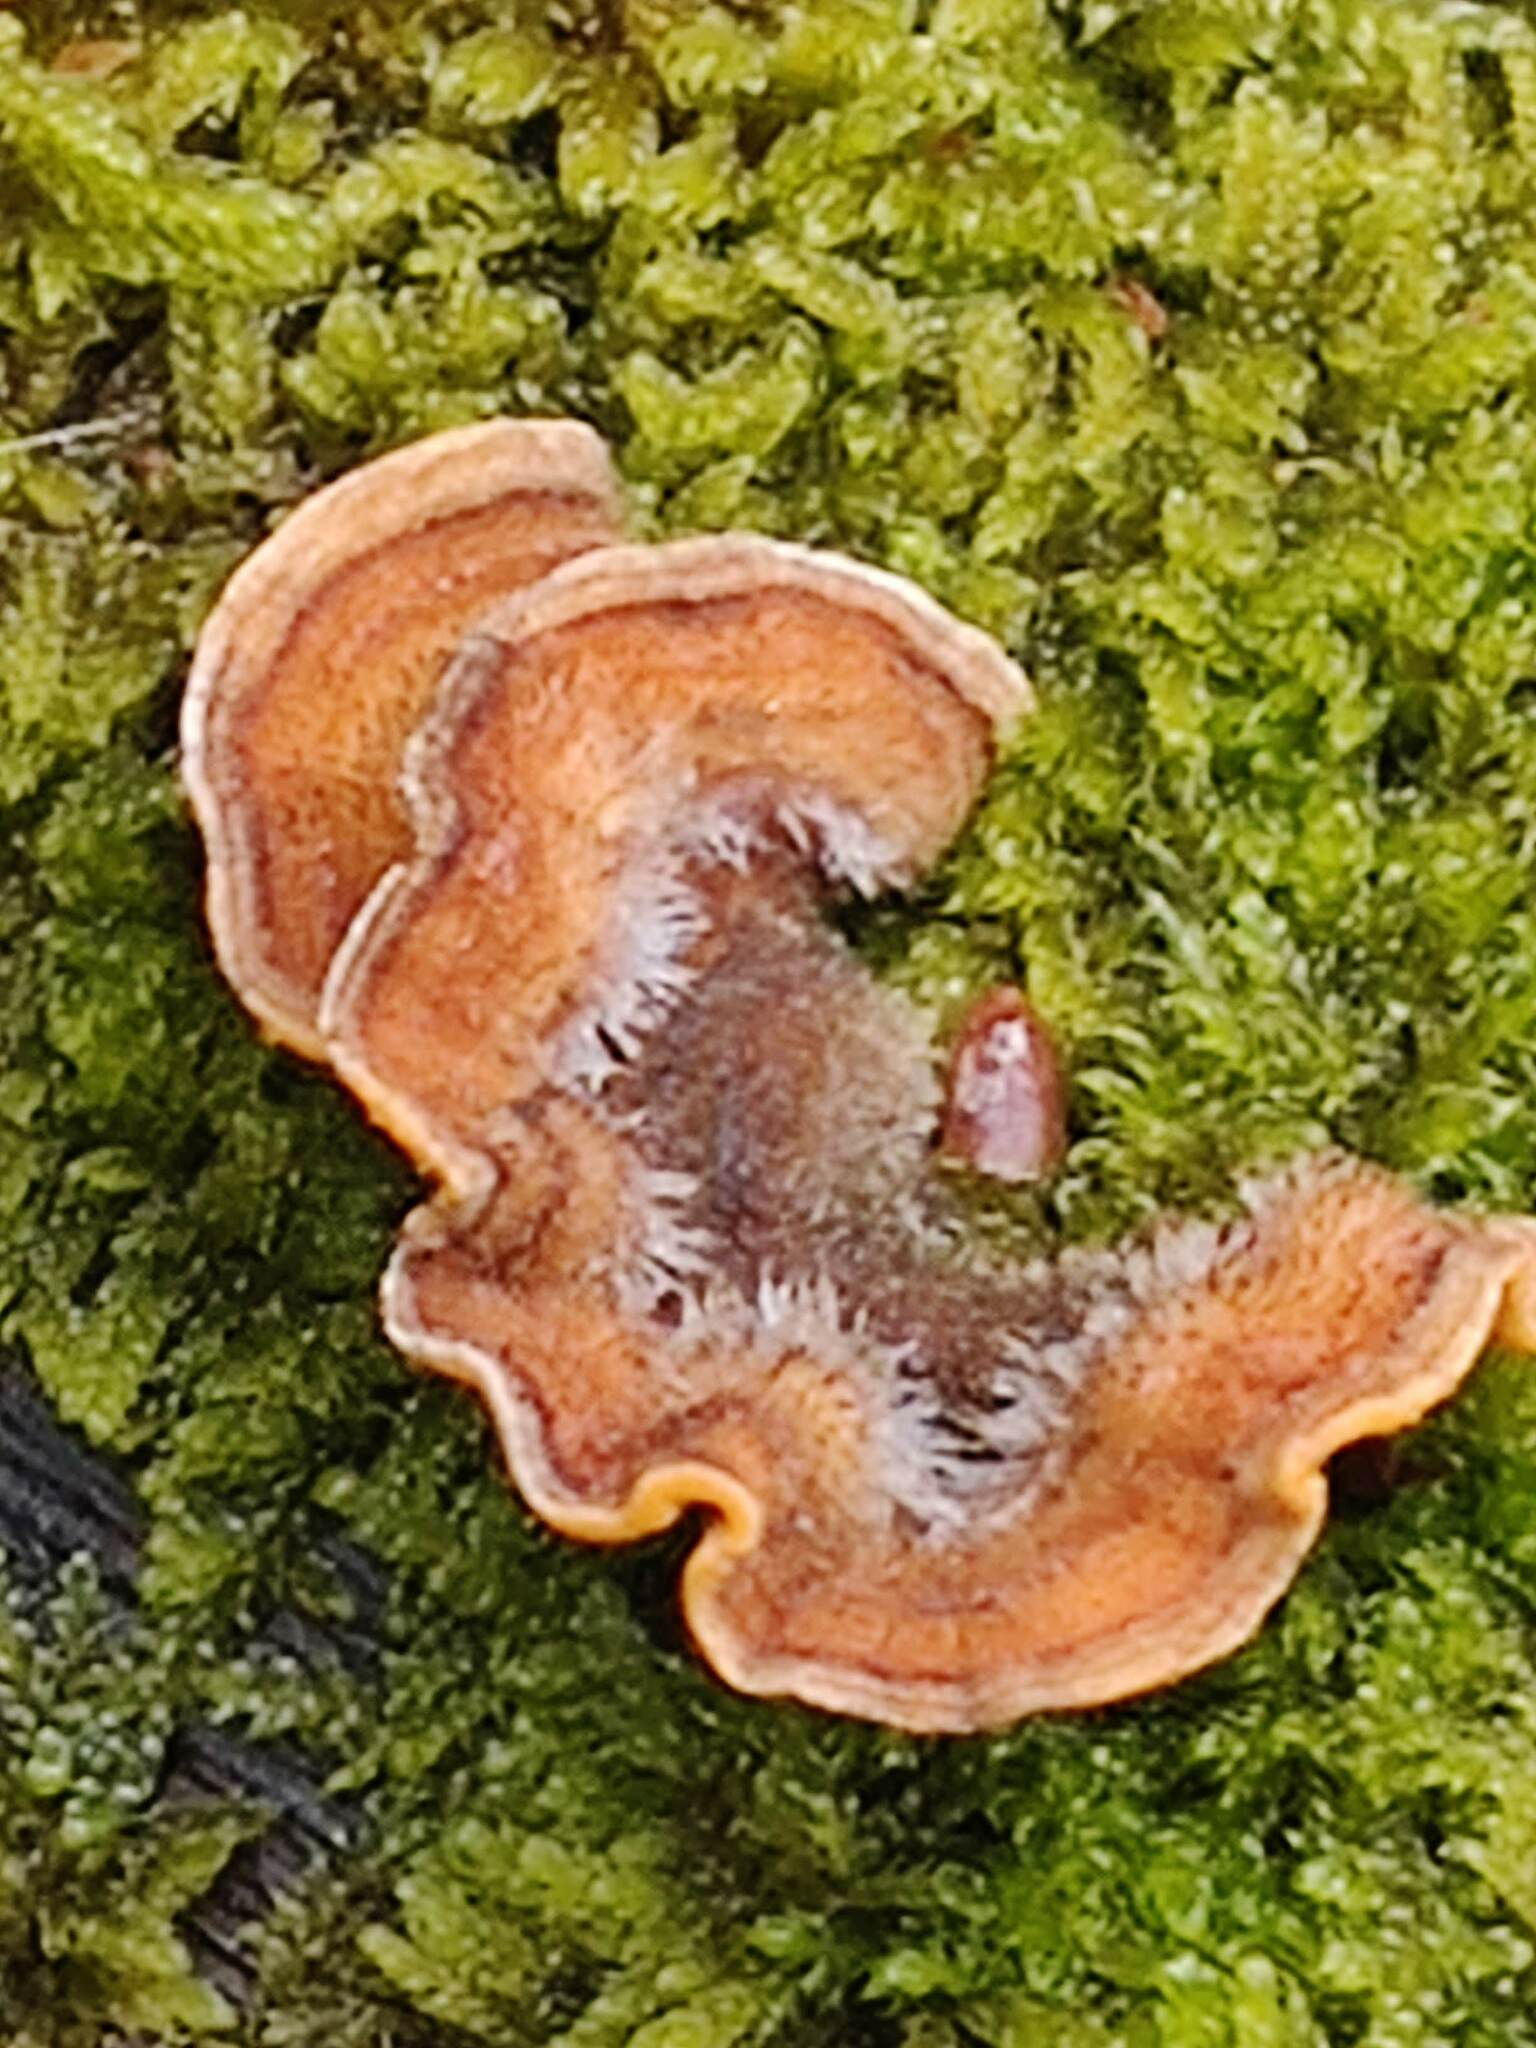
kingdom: Fungi
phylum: Basidiomycota
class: Agaricomycetes
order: Russulales
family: Stereaceae
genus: Stereum
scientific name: Stereum hirsutum
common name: Hairy curtain crust
